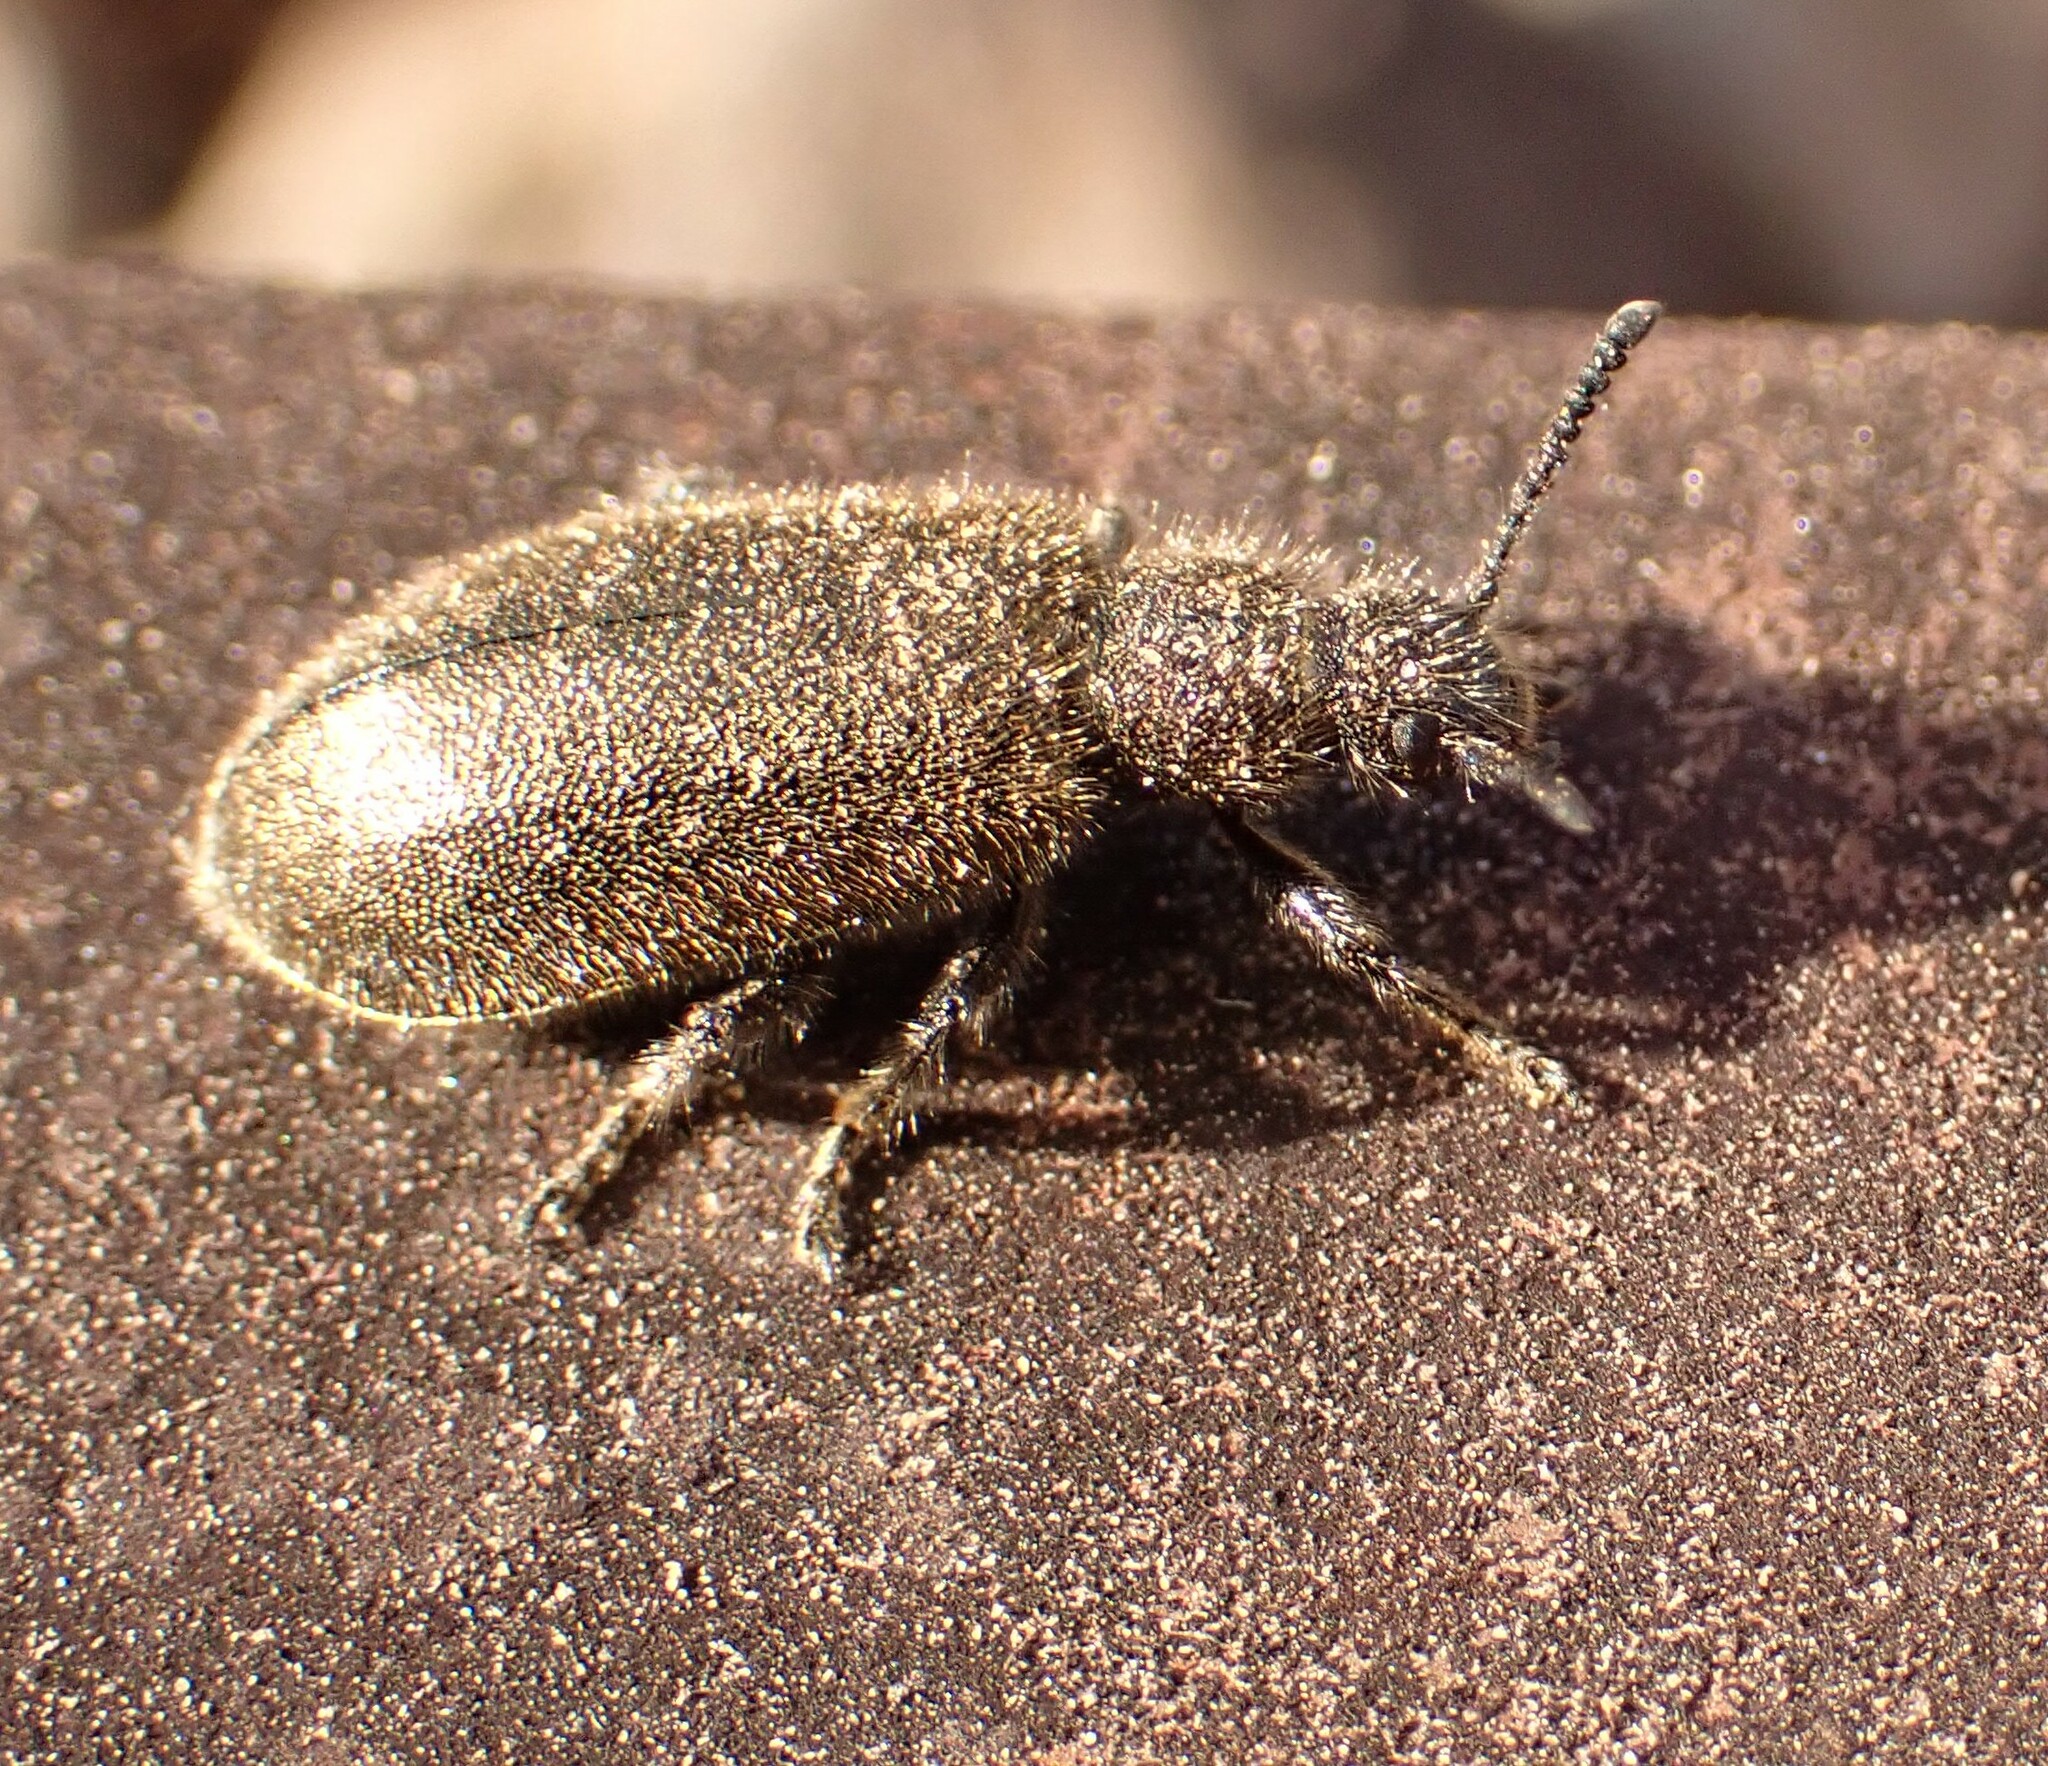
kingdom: Animalia
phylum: Arthropoda
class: Insecta
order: Coleoptera
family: Tenebrionidae
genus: Lagria
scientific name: Lagria villosa
